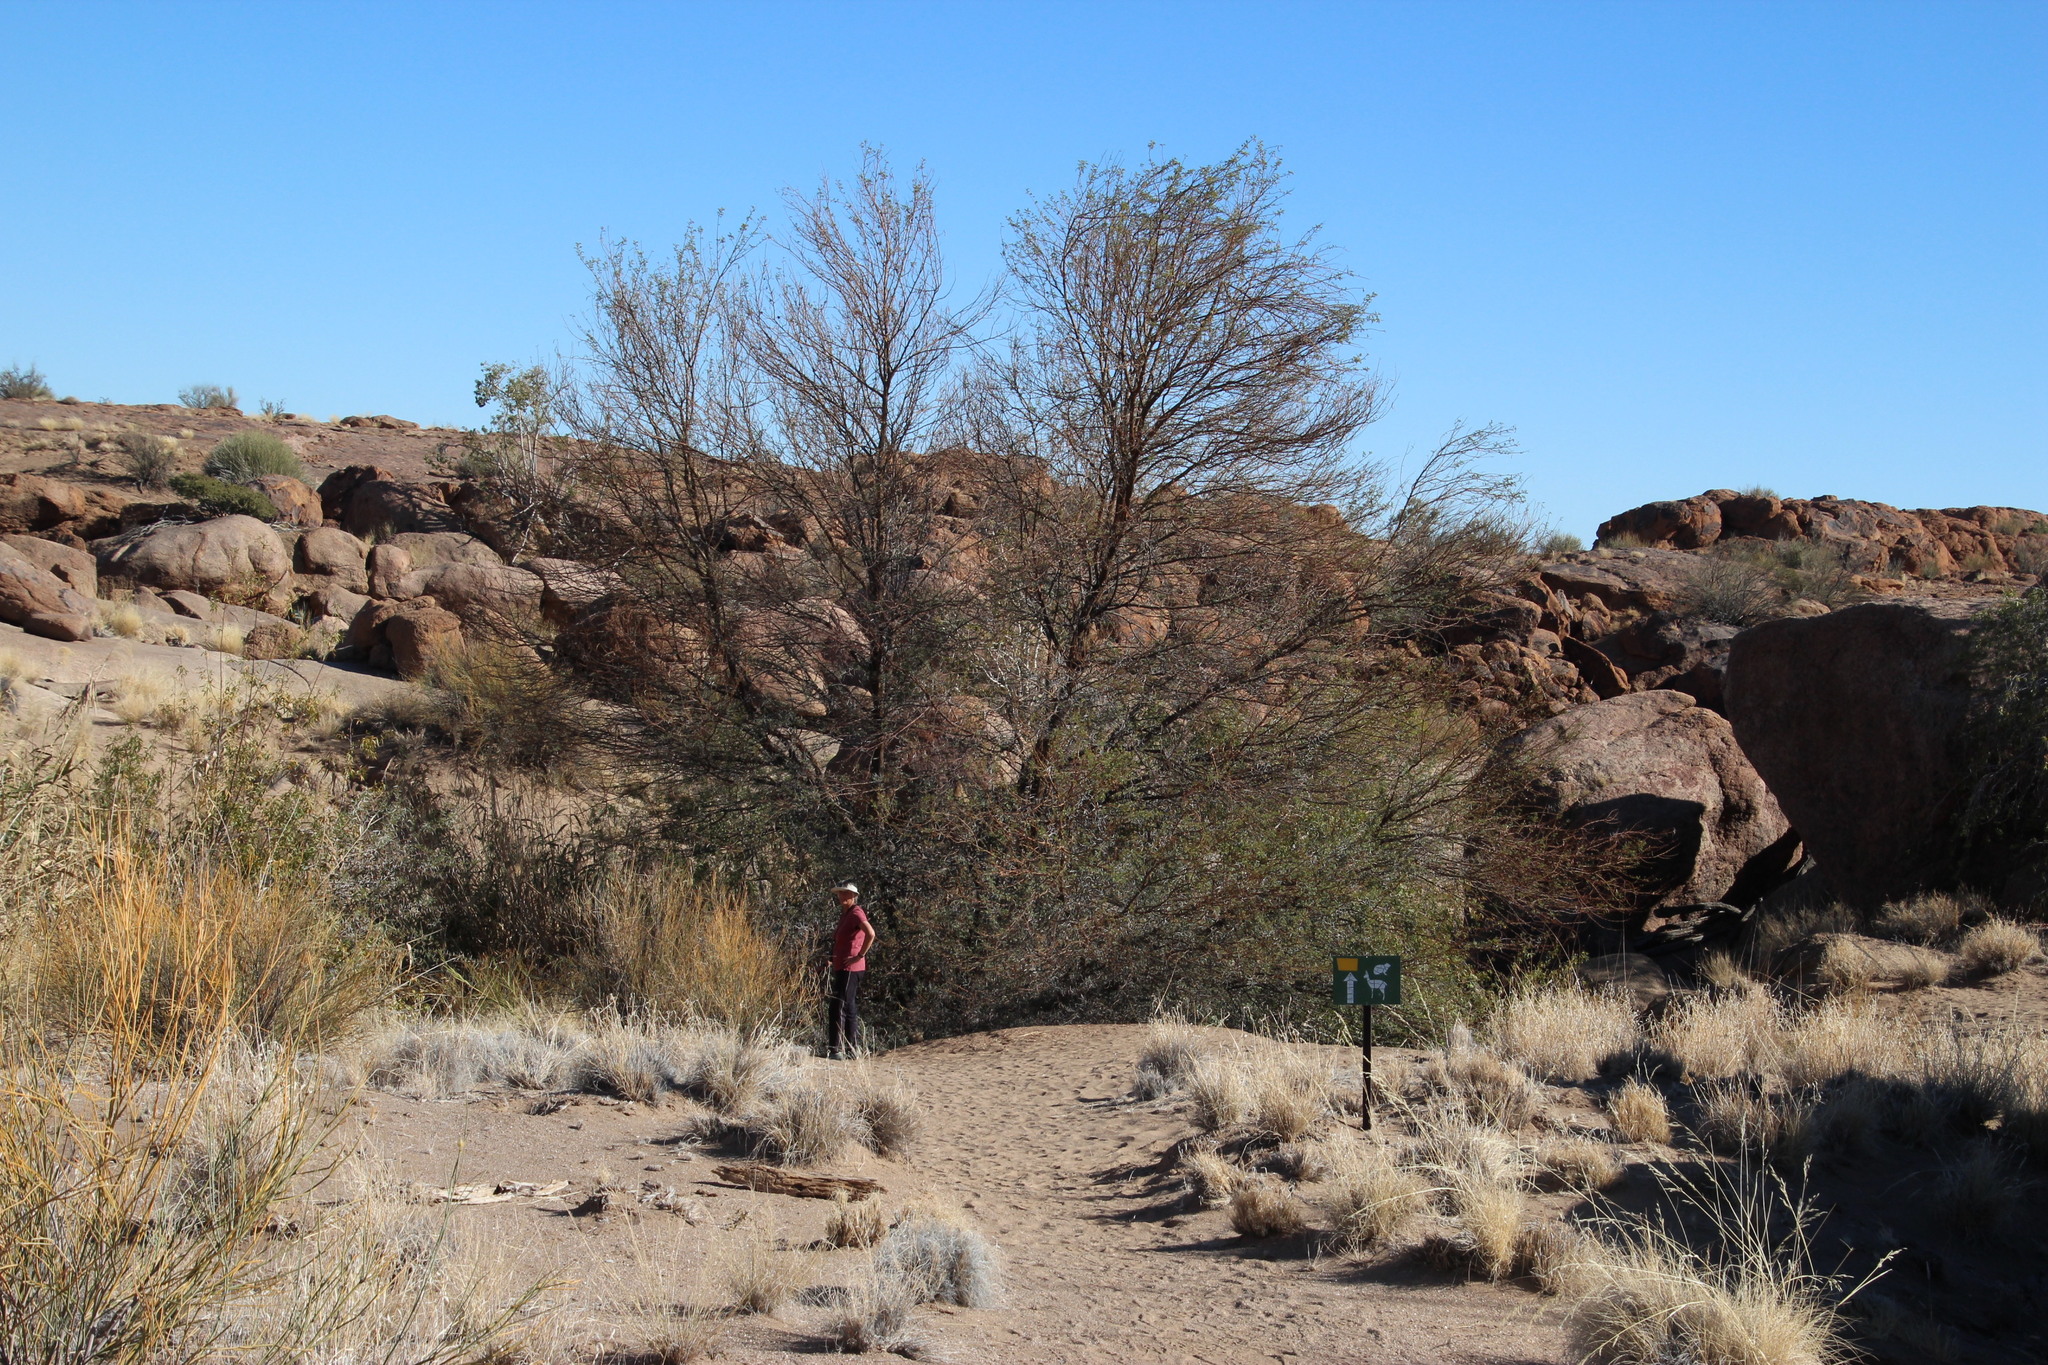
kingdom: Plantae
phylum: Tracheophyta
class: Magnoliopsida
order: Fabales
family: Fabaceae
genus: Vachellia
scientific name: Vachellia karroo
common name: Sweet thorn
